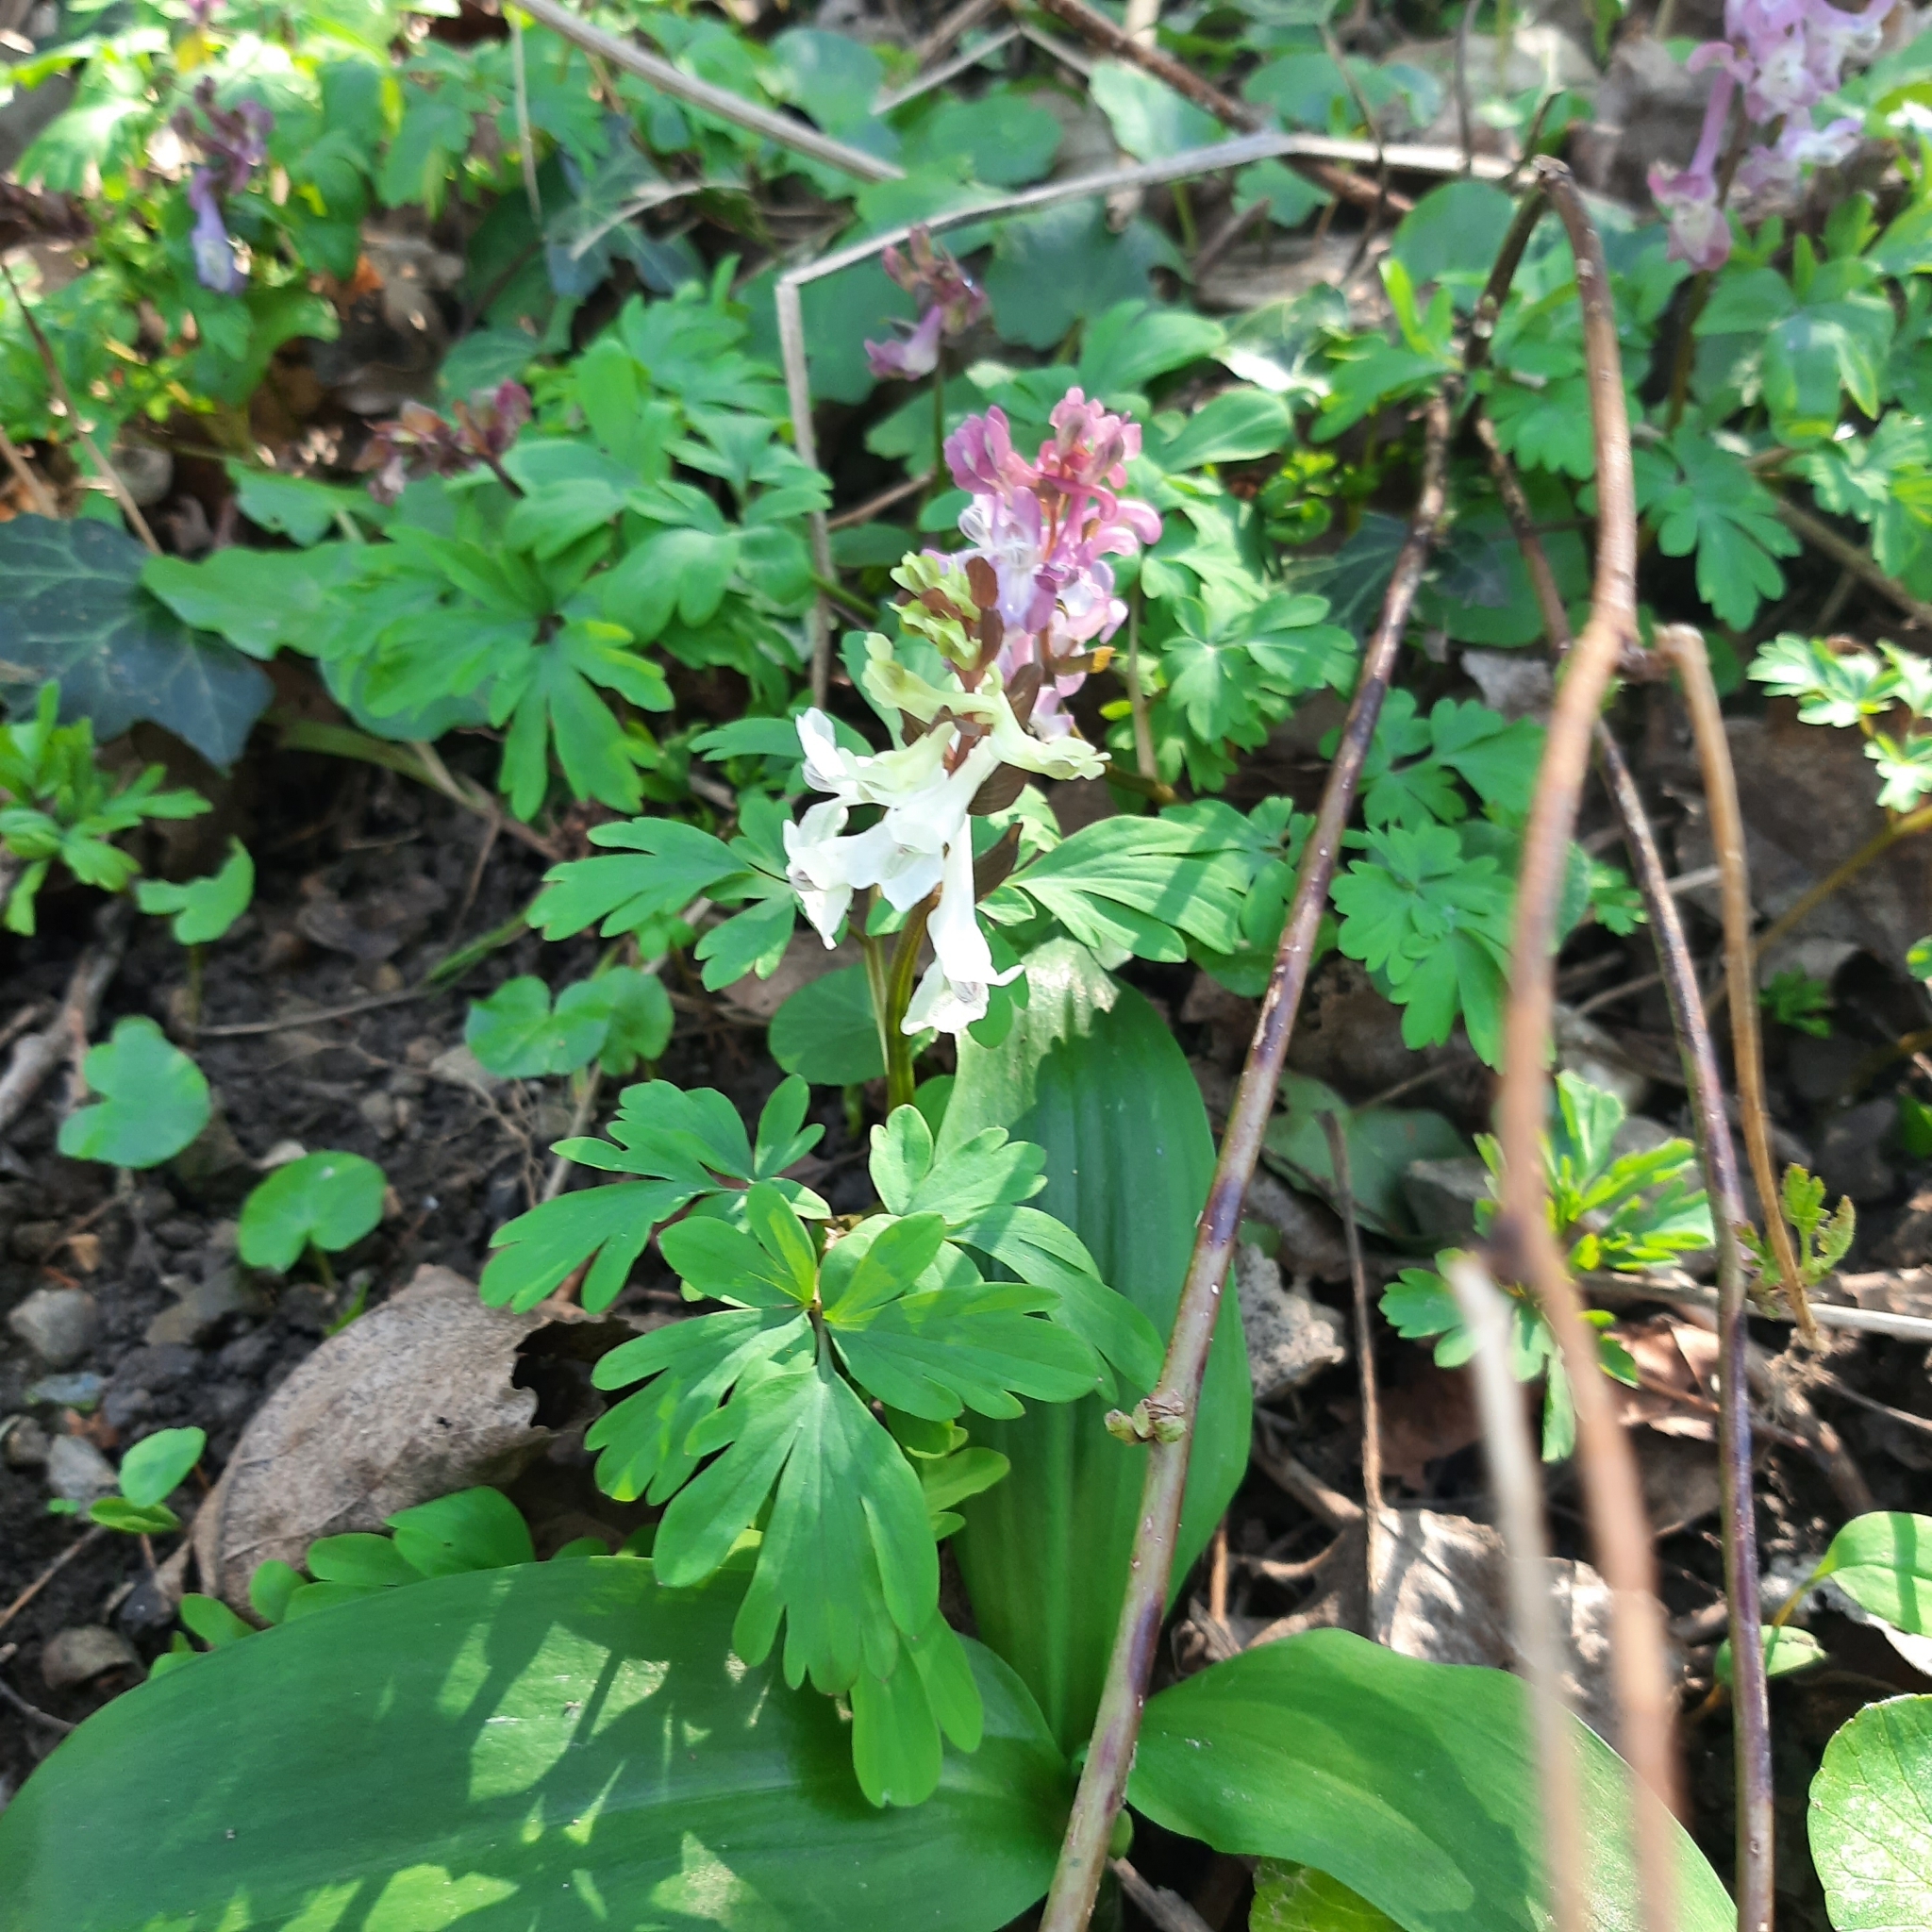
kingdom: Plantae
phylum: Tracheophyta
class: Magnoliopsida
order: Ranunculales
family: Papaveraceae
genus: Corydalis
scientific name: Corydalis cava
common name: Hollowroot
